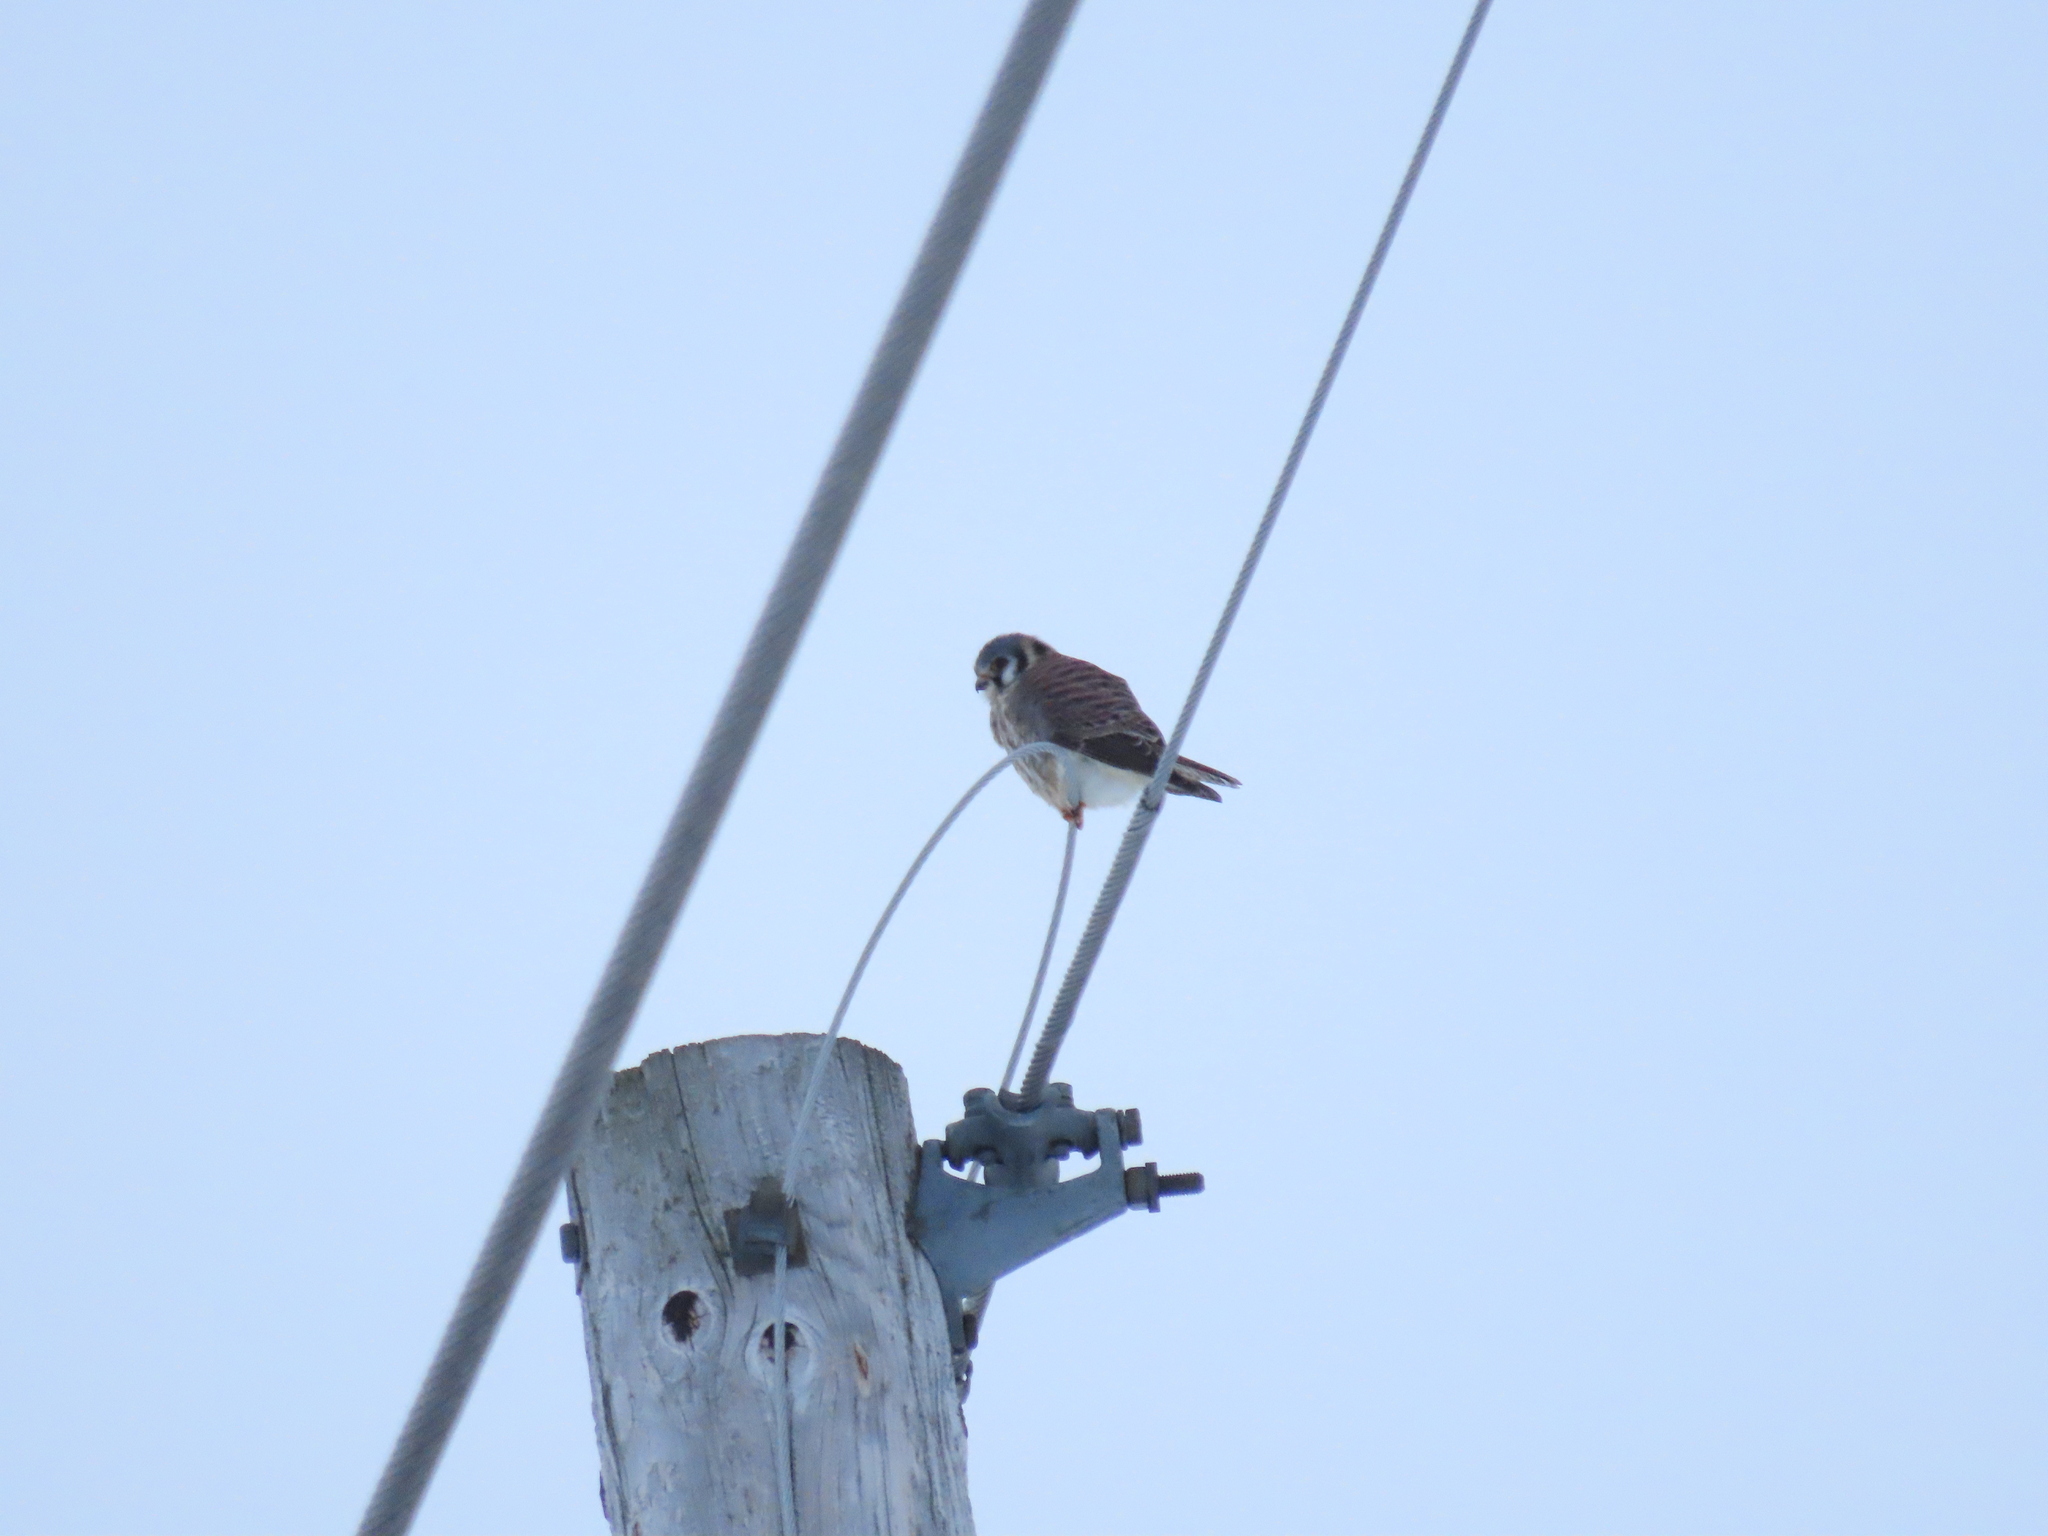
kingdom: Animalia
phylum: Chordata
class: Aves
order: Falconiformes
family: Falconidae
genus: Falco
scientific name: Falco sparverius
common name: American kestrel
